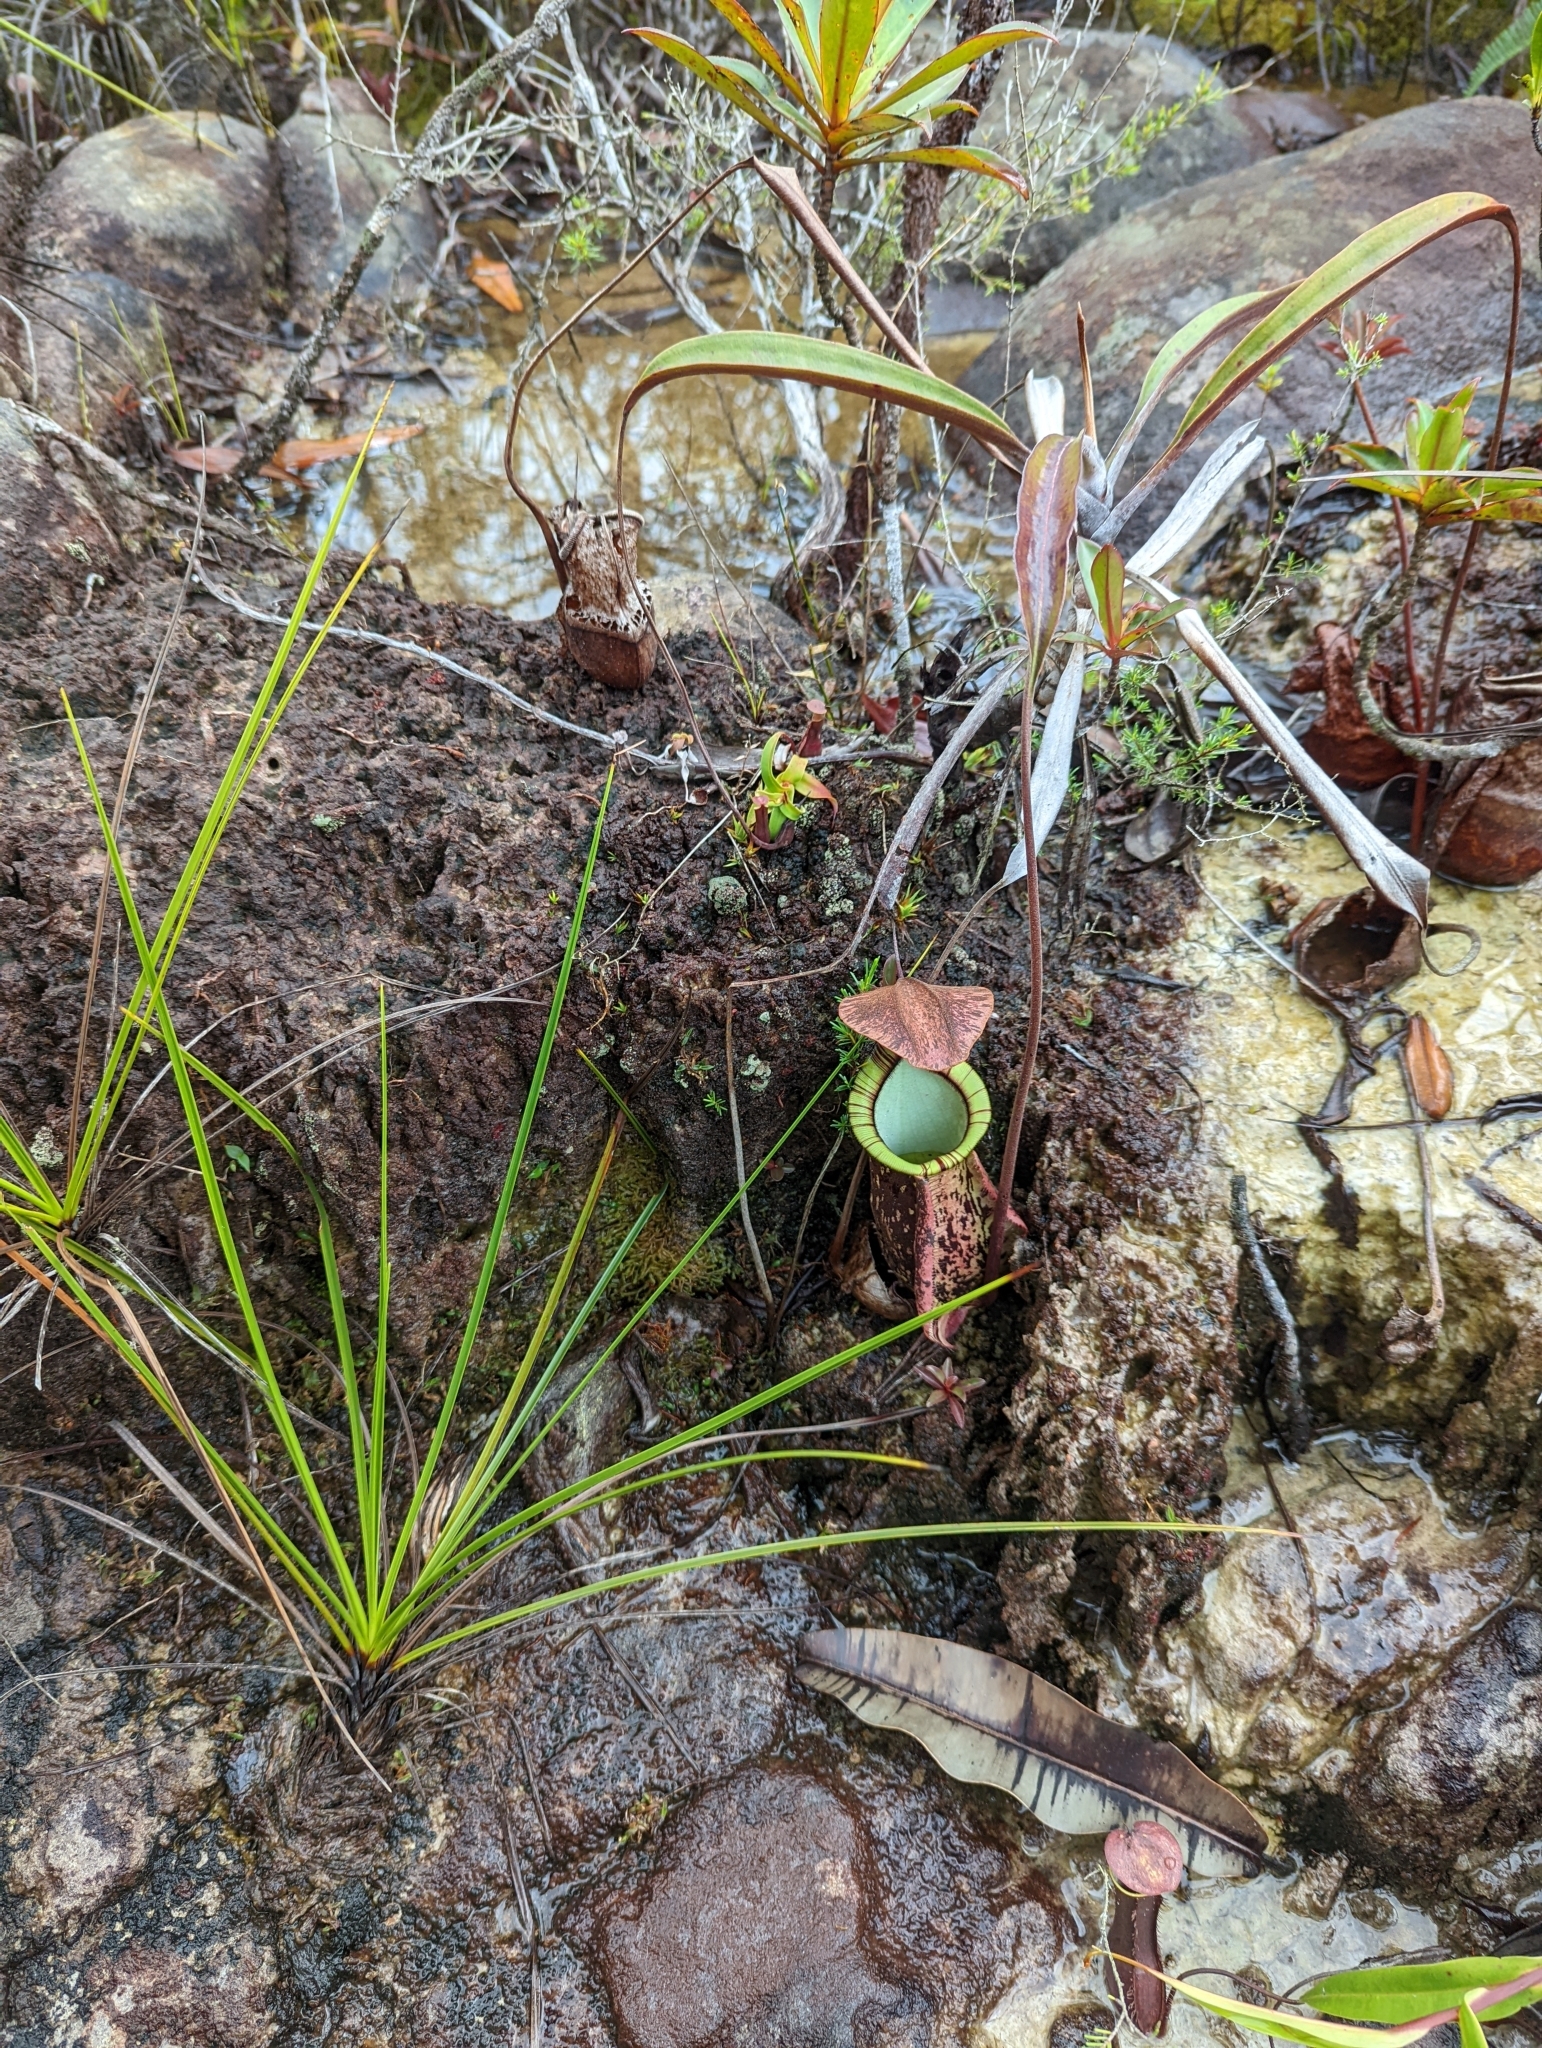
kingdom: Plantae
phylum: Tracheophyta
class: Magnoliopsida
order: Caryophyllales
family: Nepenthaceae
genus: Nepenthes
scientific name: Nepenthes rafflesiana
